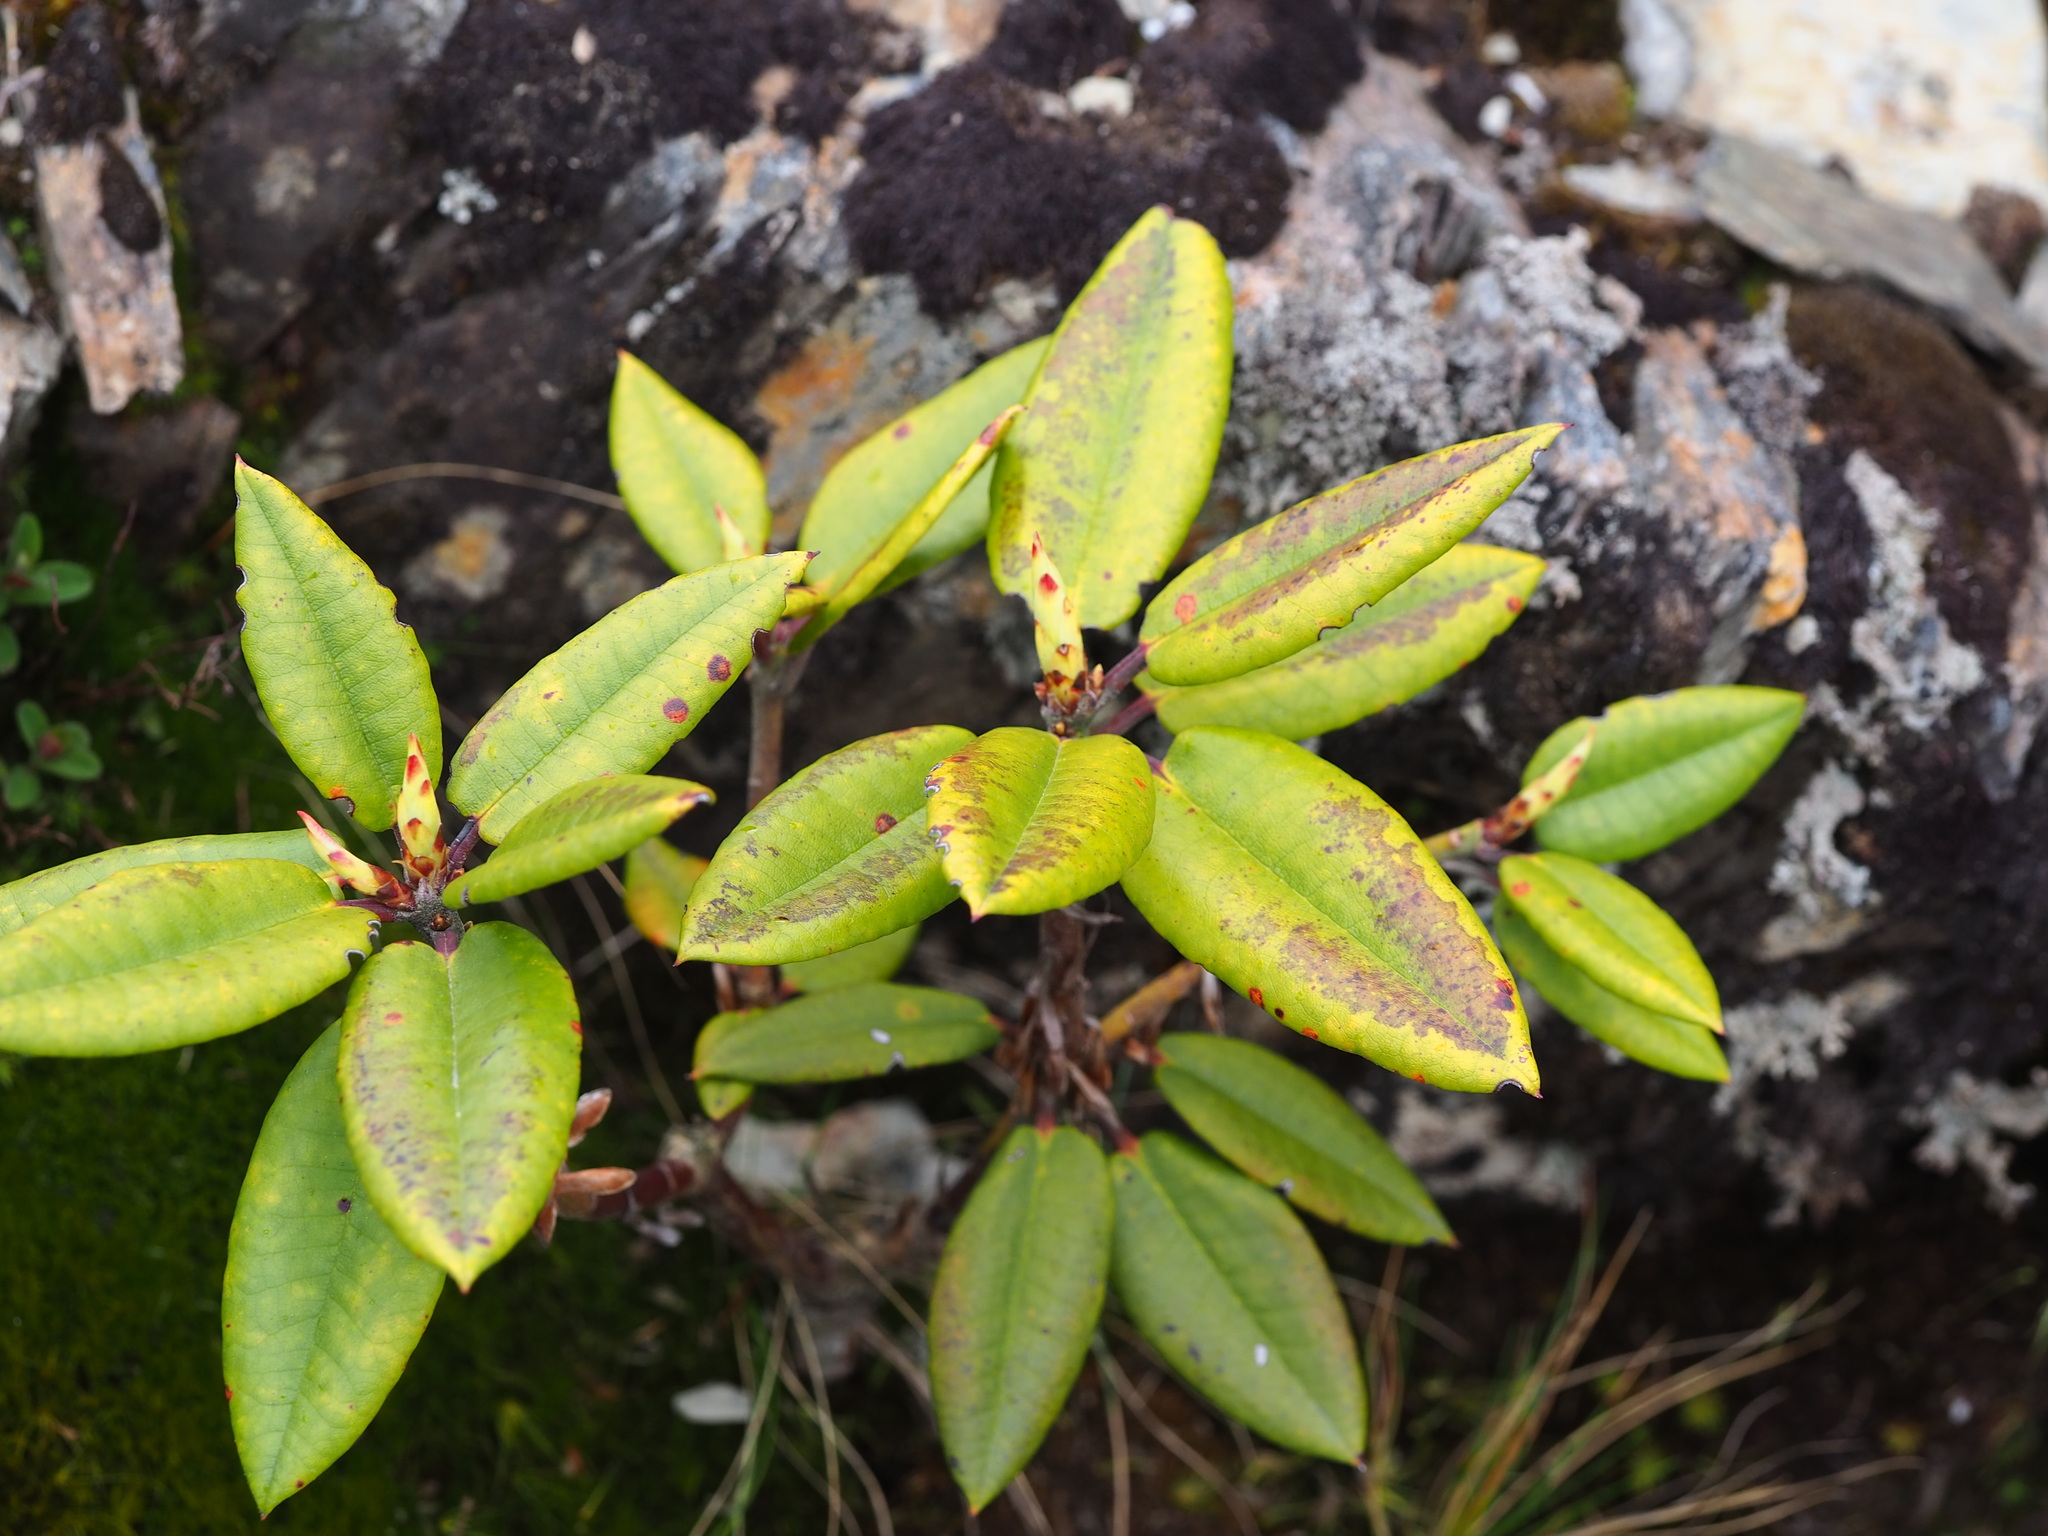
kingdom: Plantae
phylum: Tracheophyta
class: Magnoliopsida
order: Ericales
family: Ericaceae
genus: Rhododendron
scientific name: Rhododendron pseudochrysanthum
